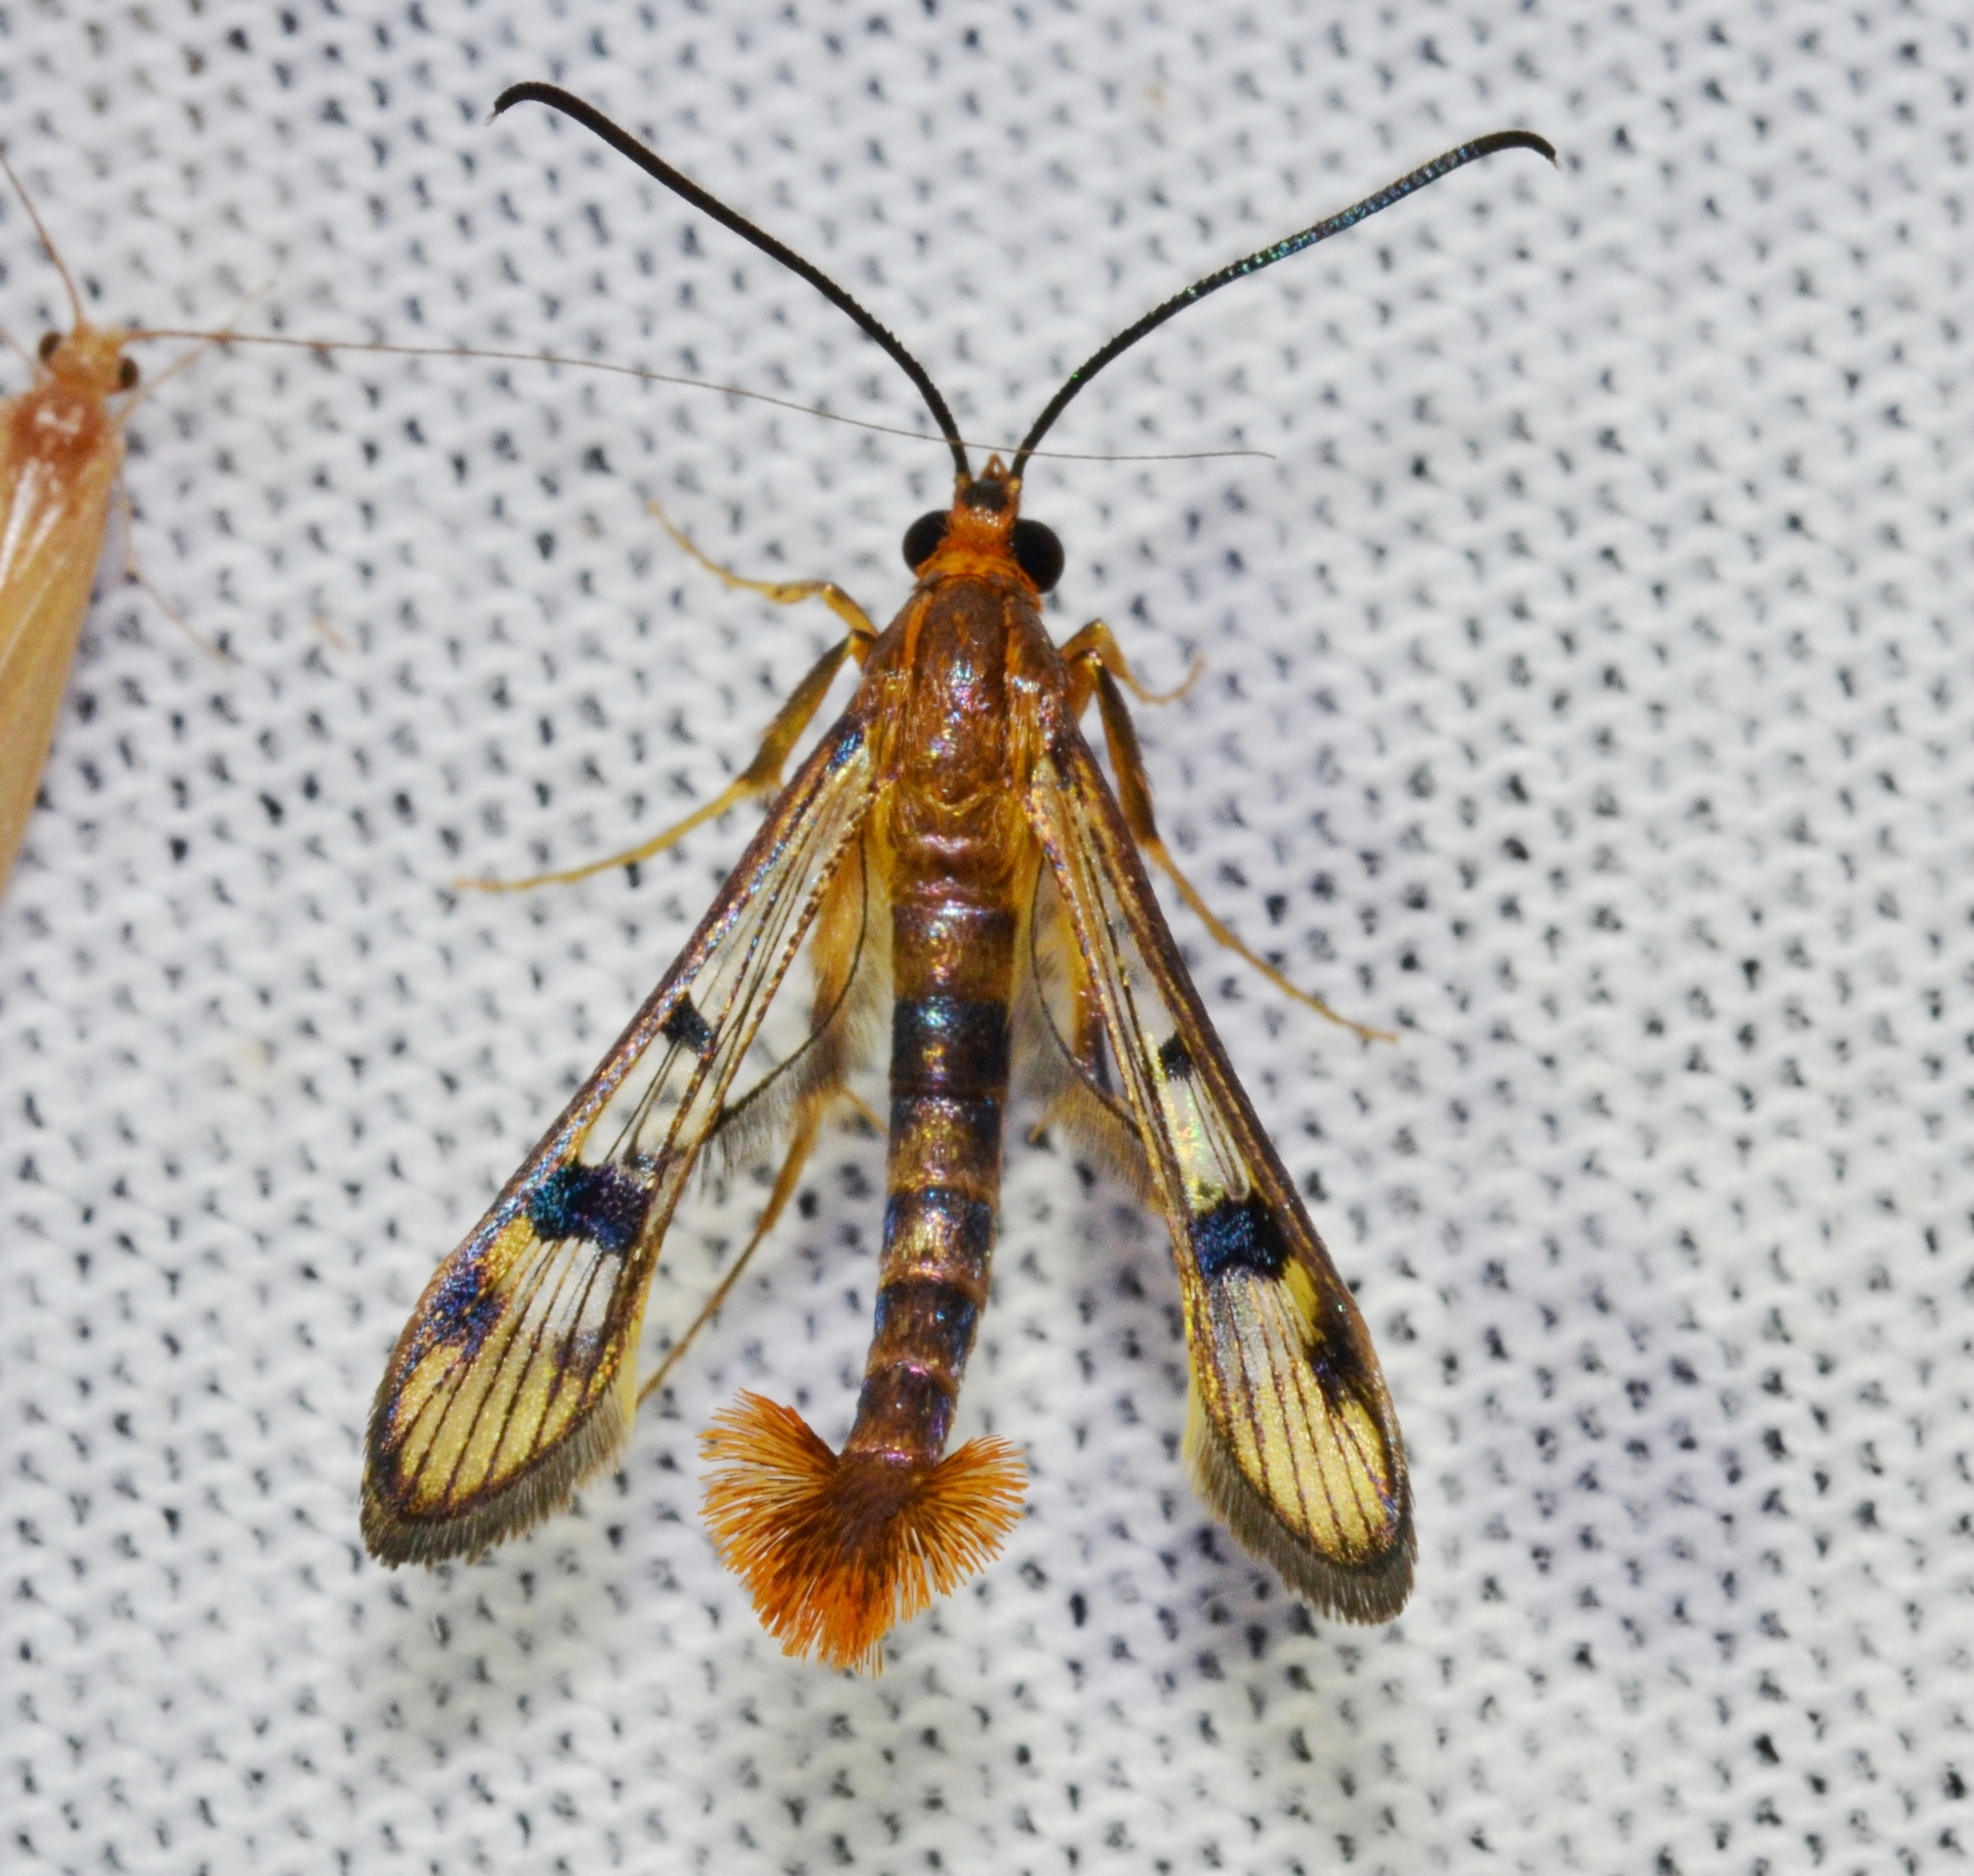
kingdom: Animalia
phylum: Arthropoda
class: Insecta
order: Lepidoptera
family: Sesiidae
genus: Synanthedon
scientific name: Synanthedon acerni
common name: Maple callus borer moth
